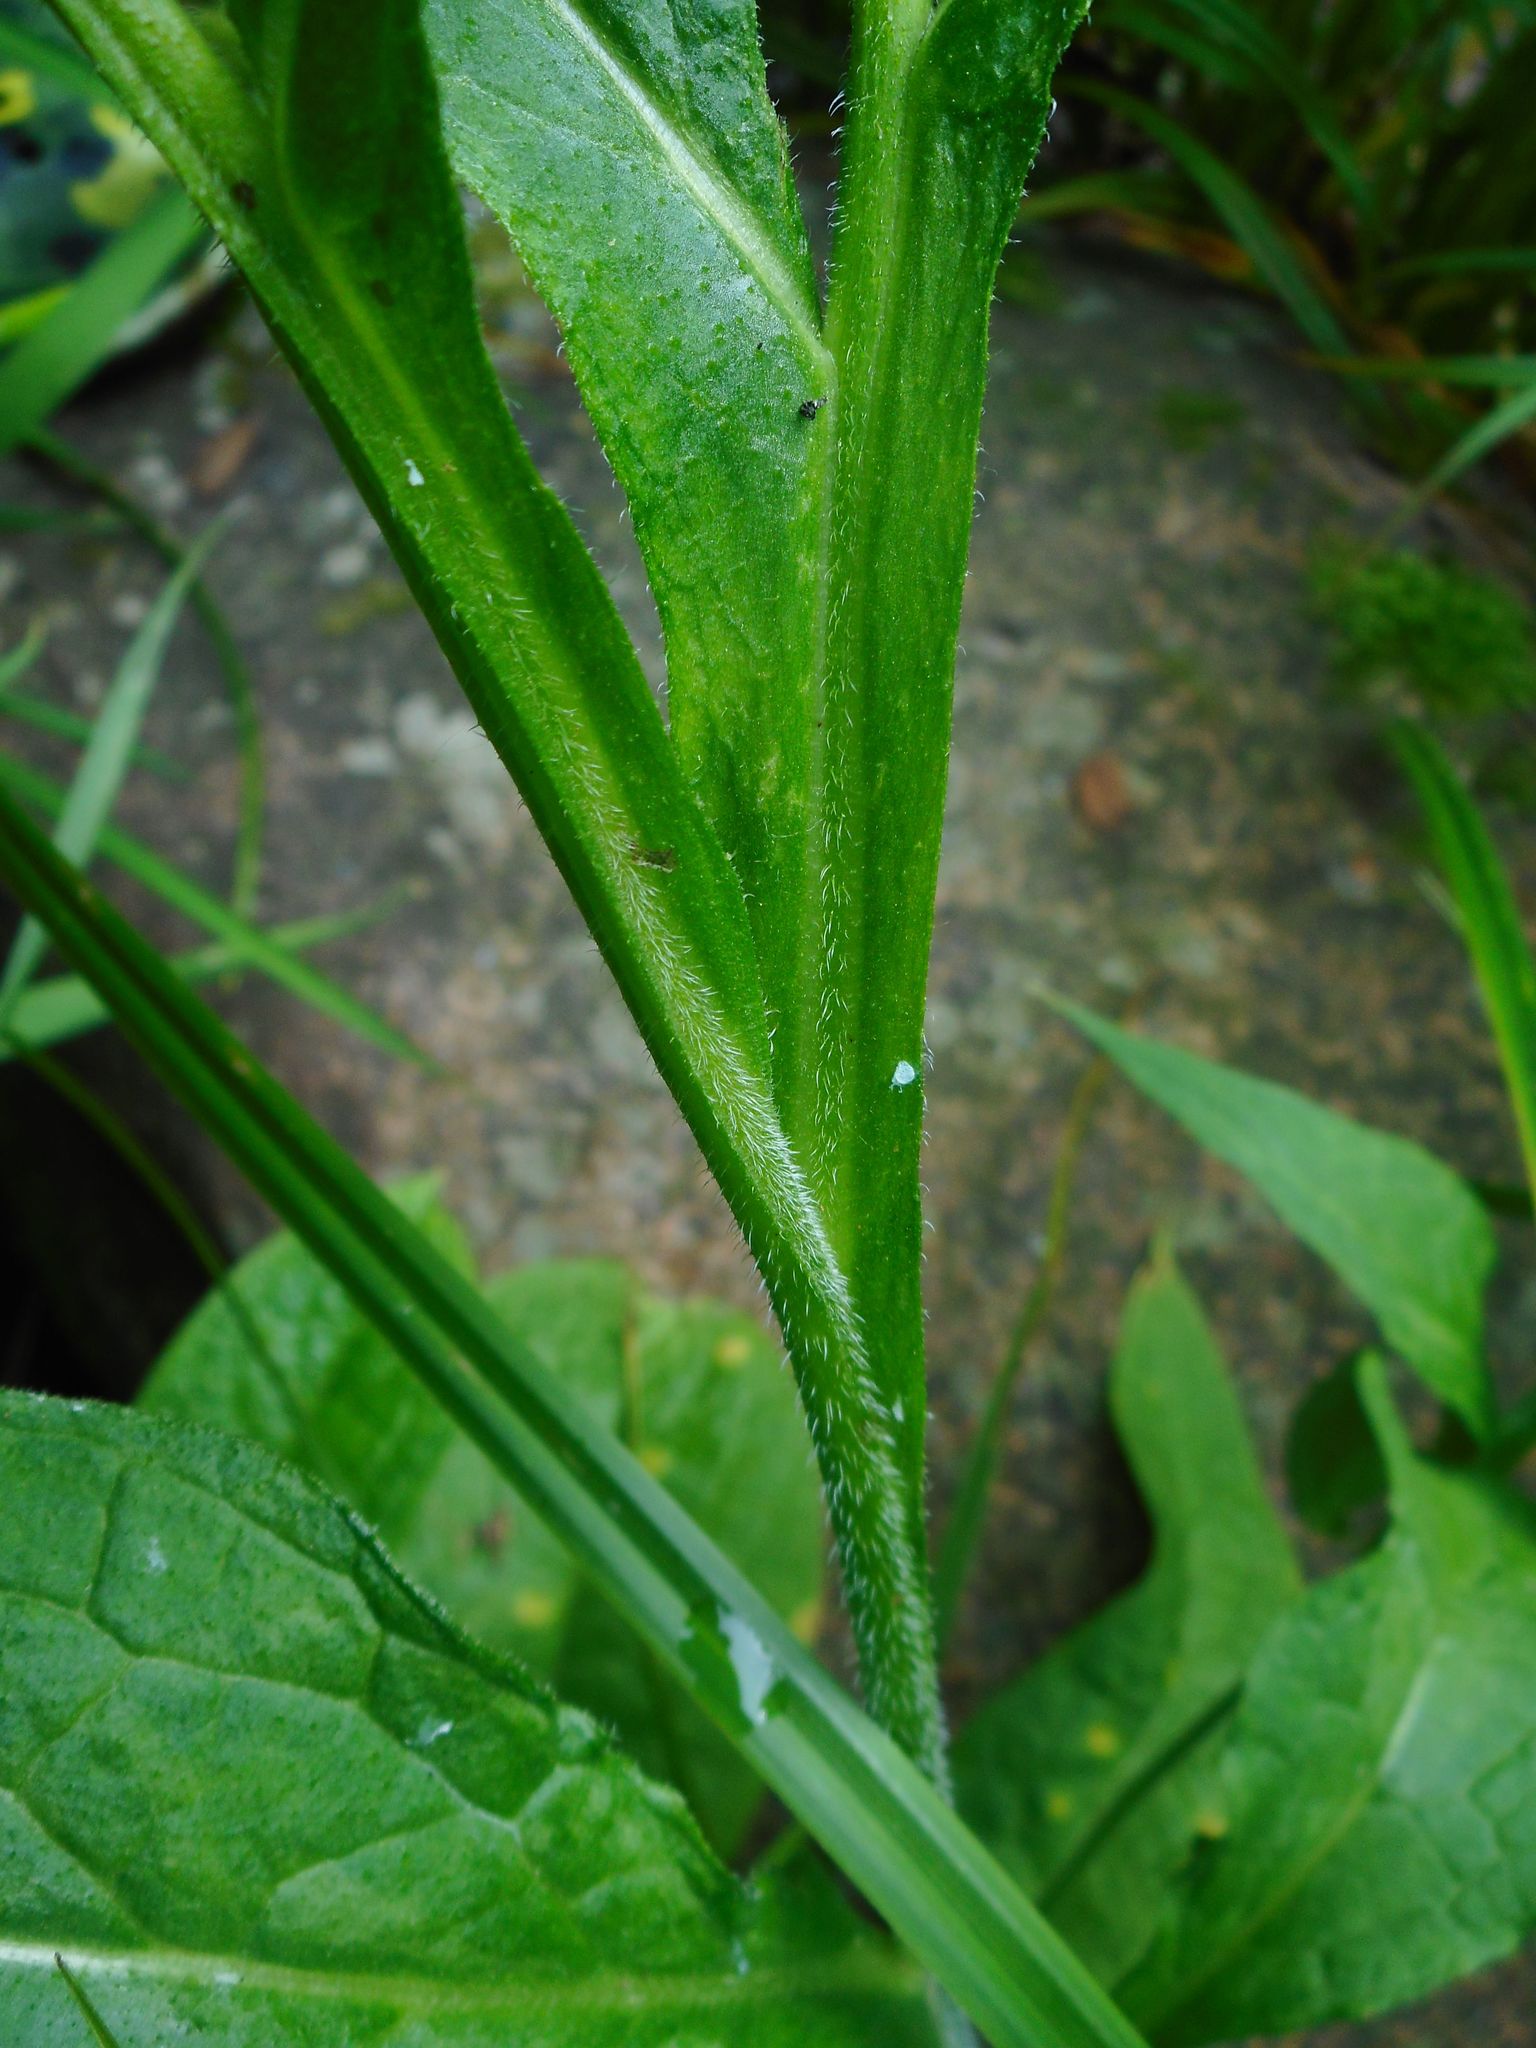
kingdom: Plantae
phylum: Tracheophyta
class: Magnoliopsida
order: Boraginales
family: Boraginaceae
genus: Symphytum
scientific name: Symphytum officinale
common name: Common comfrey
